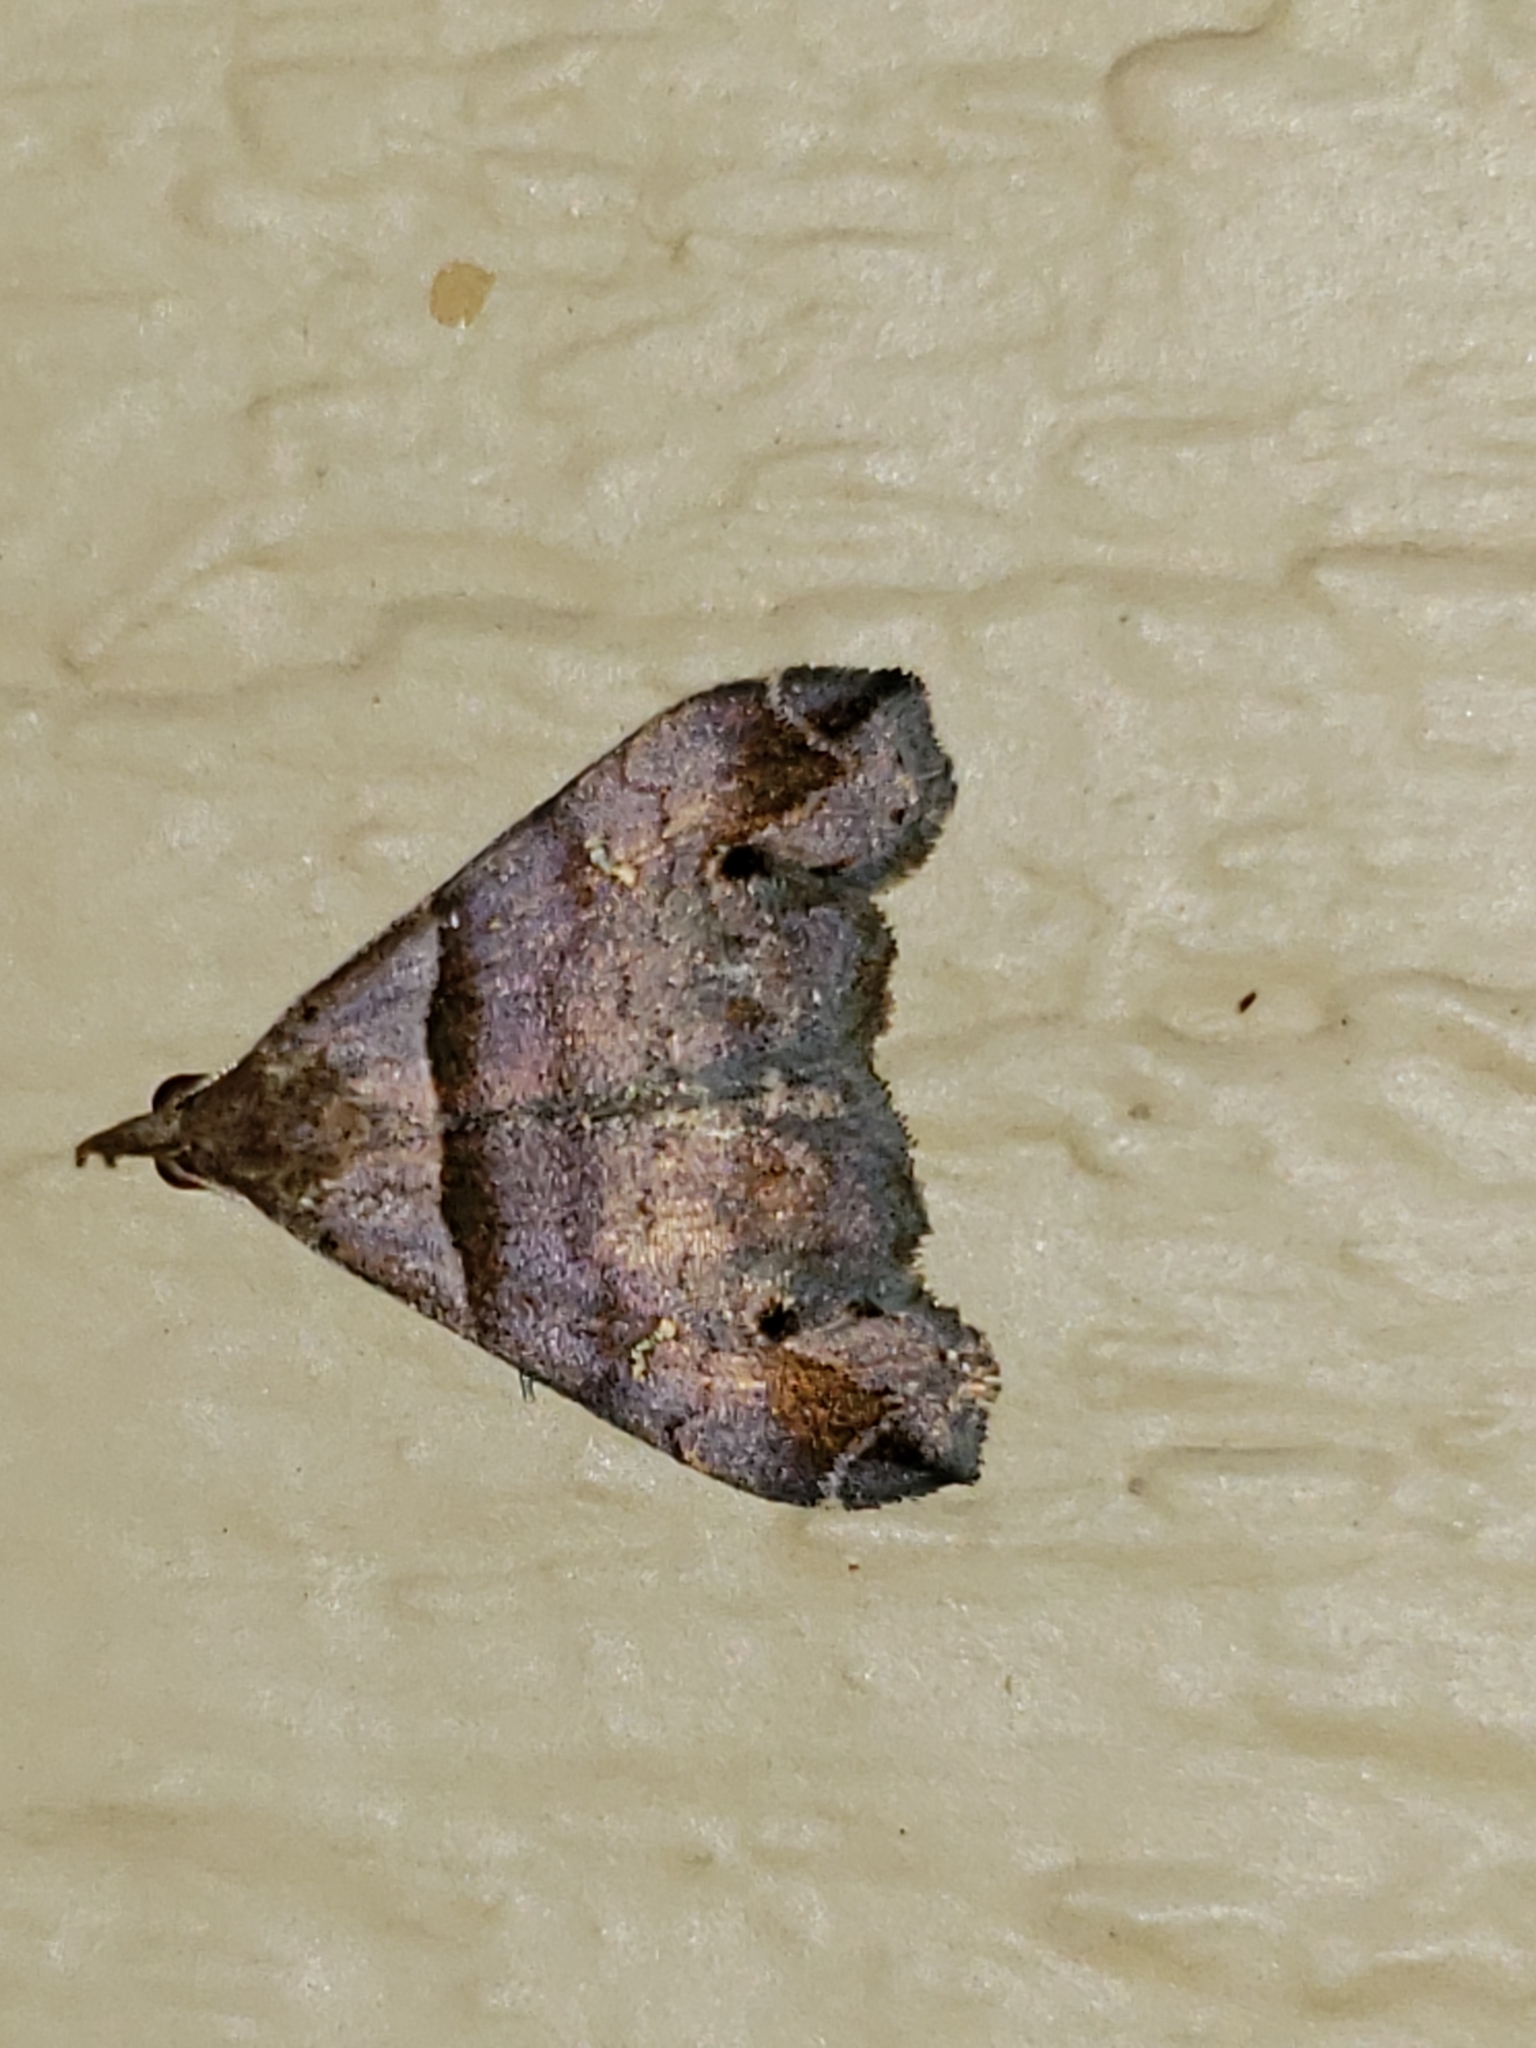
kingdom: Animalia
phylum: Arthropoda
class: Insecta
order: Lepidoptera
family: Erebidae
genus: Lascoria
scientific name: Lascoria ambigualis
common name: Ambiguous moth
